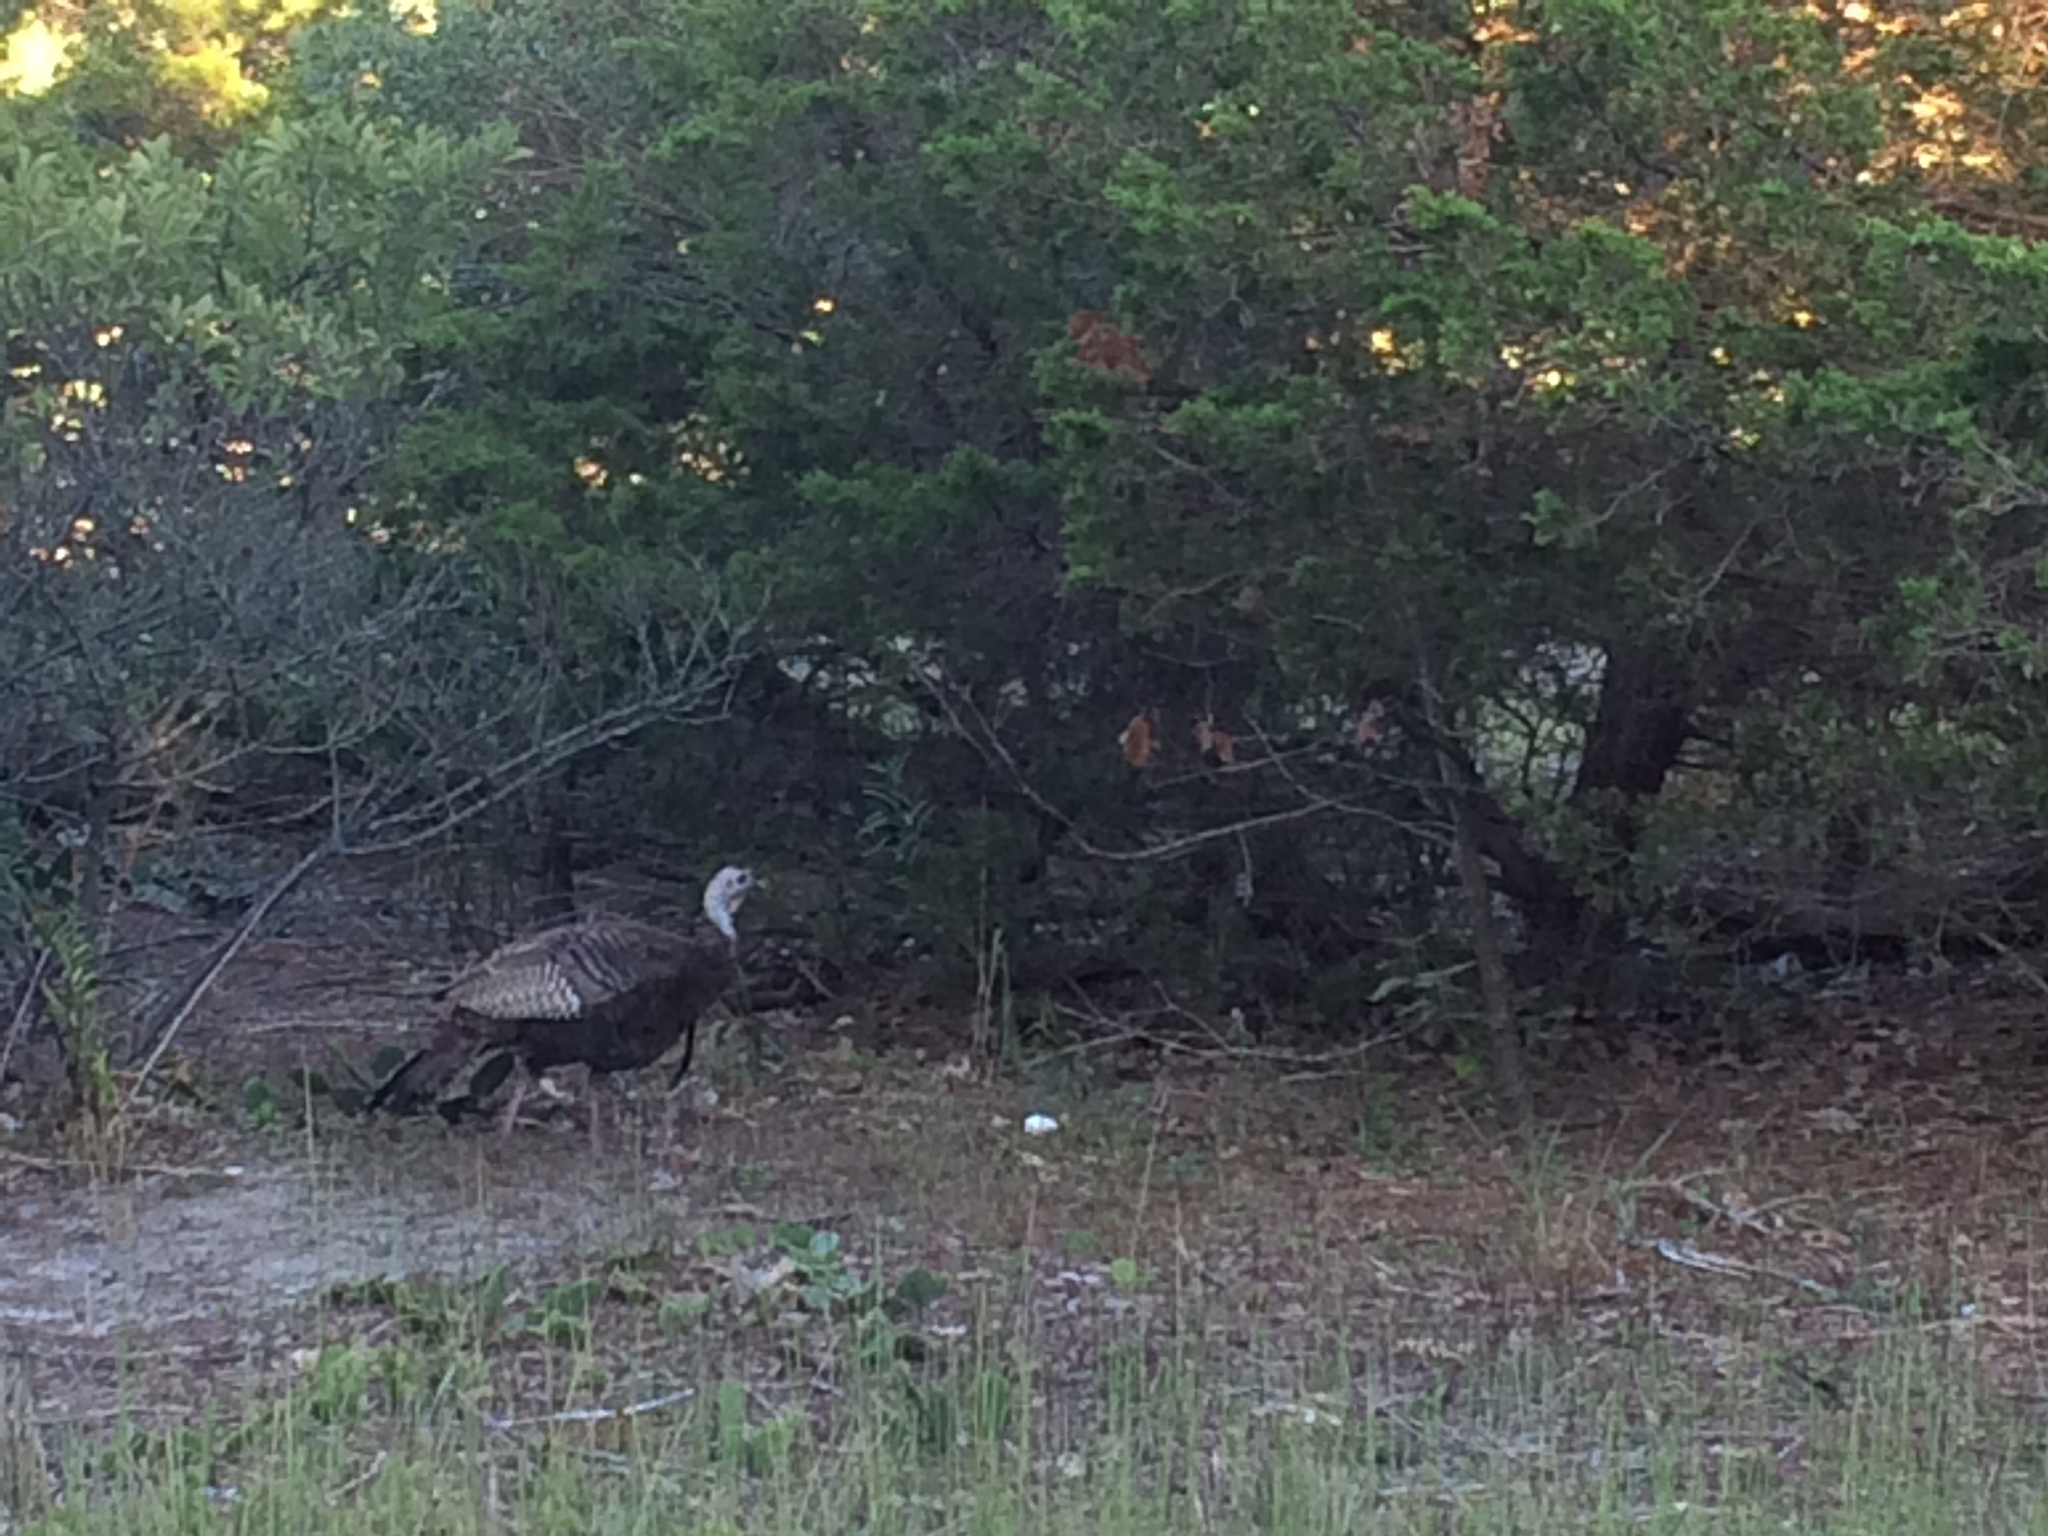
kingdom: Animalia
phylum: Chordata
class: Aves
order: Galliformes
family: Phasianidae
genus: Meleagris
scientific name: Meleagris gallopavo
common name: Wild turkey
